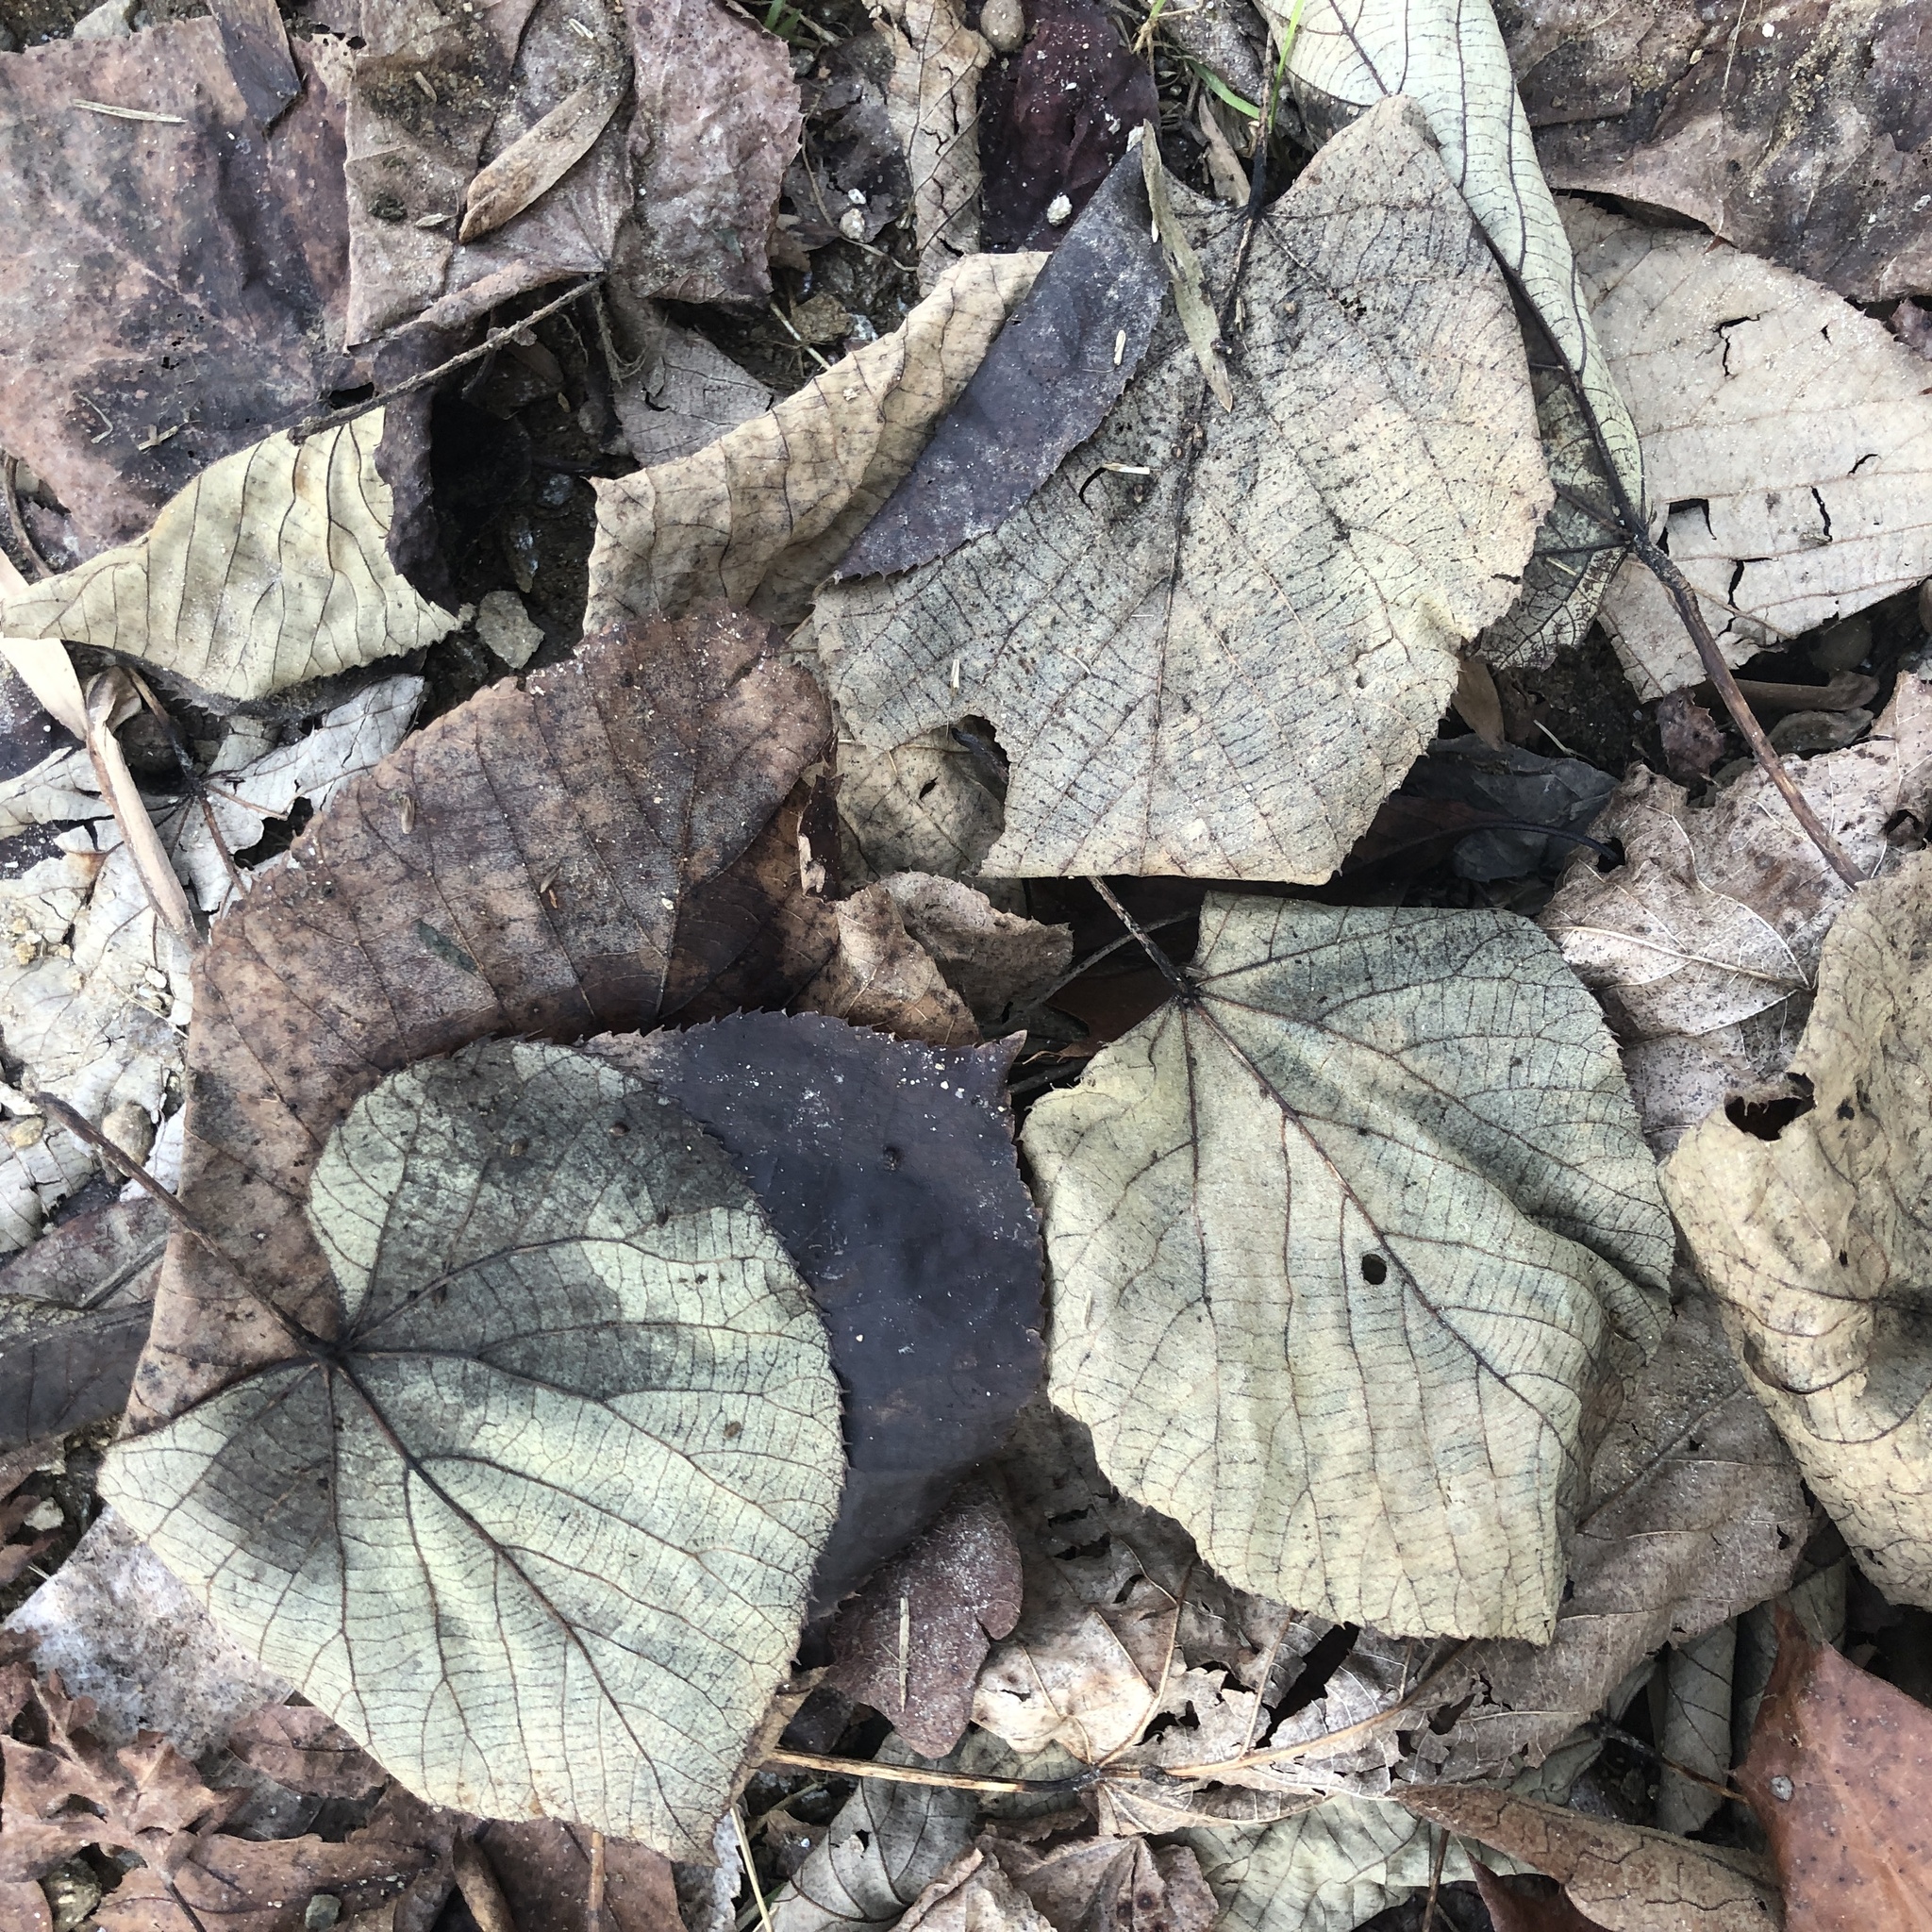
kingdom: Plantae
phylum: Tracheophyta
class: Magnoliopsida
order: Malvales
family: Malvaceae
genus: Tilia
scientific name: Tilia americana
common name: Basswood
